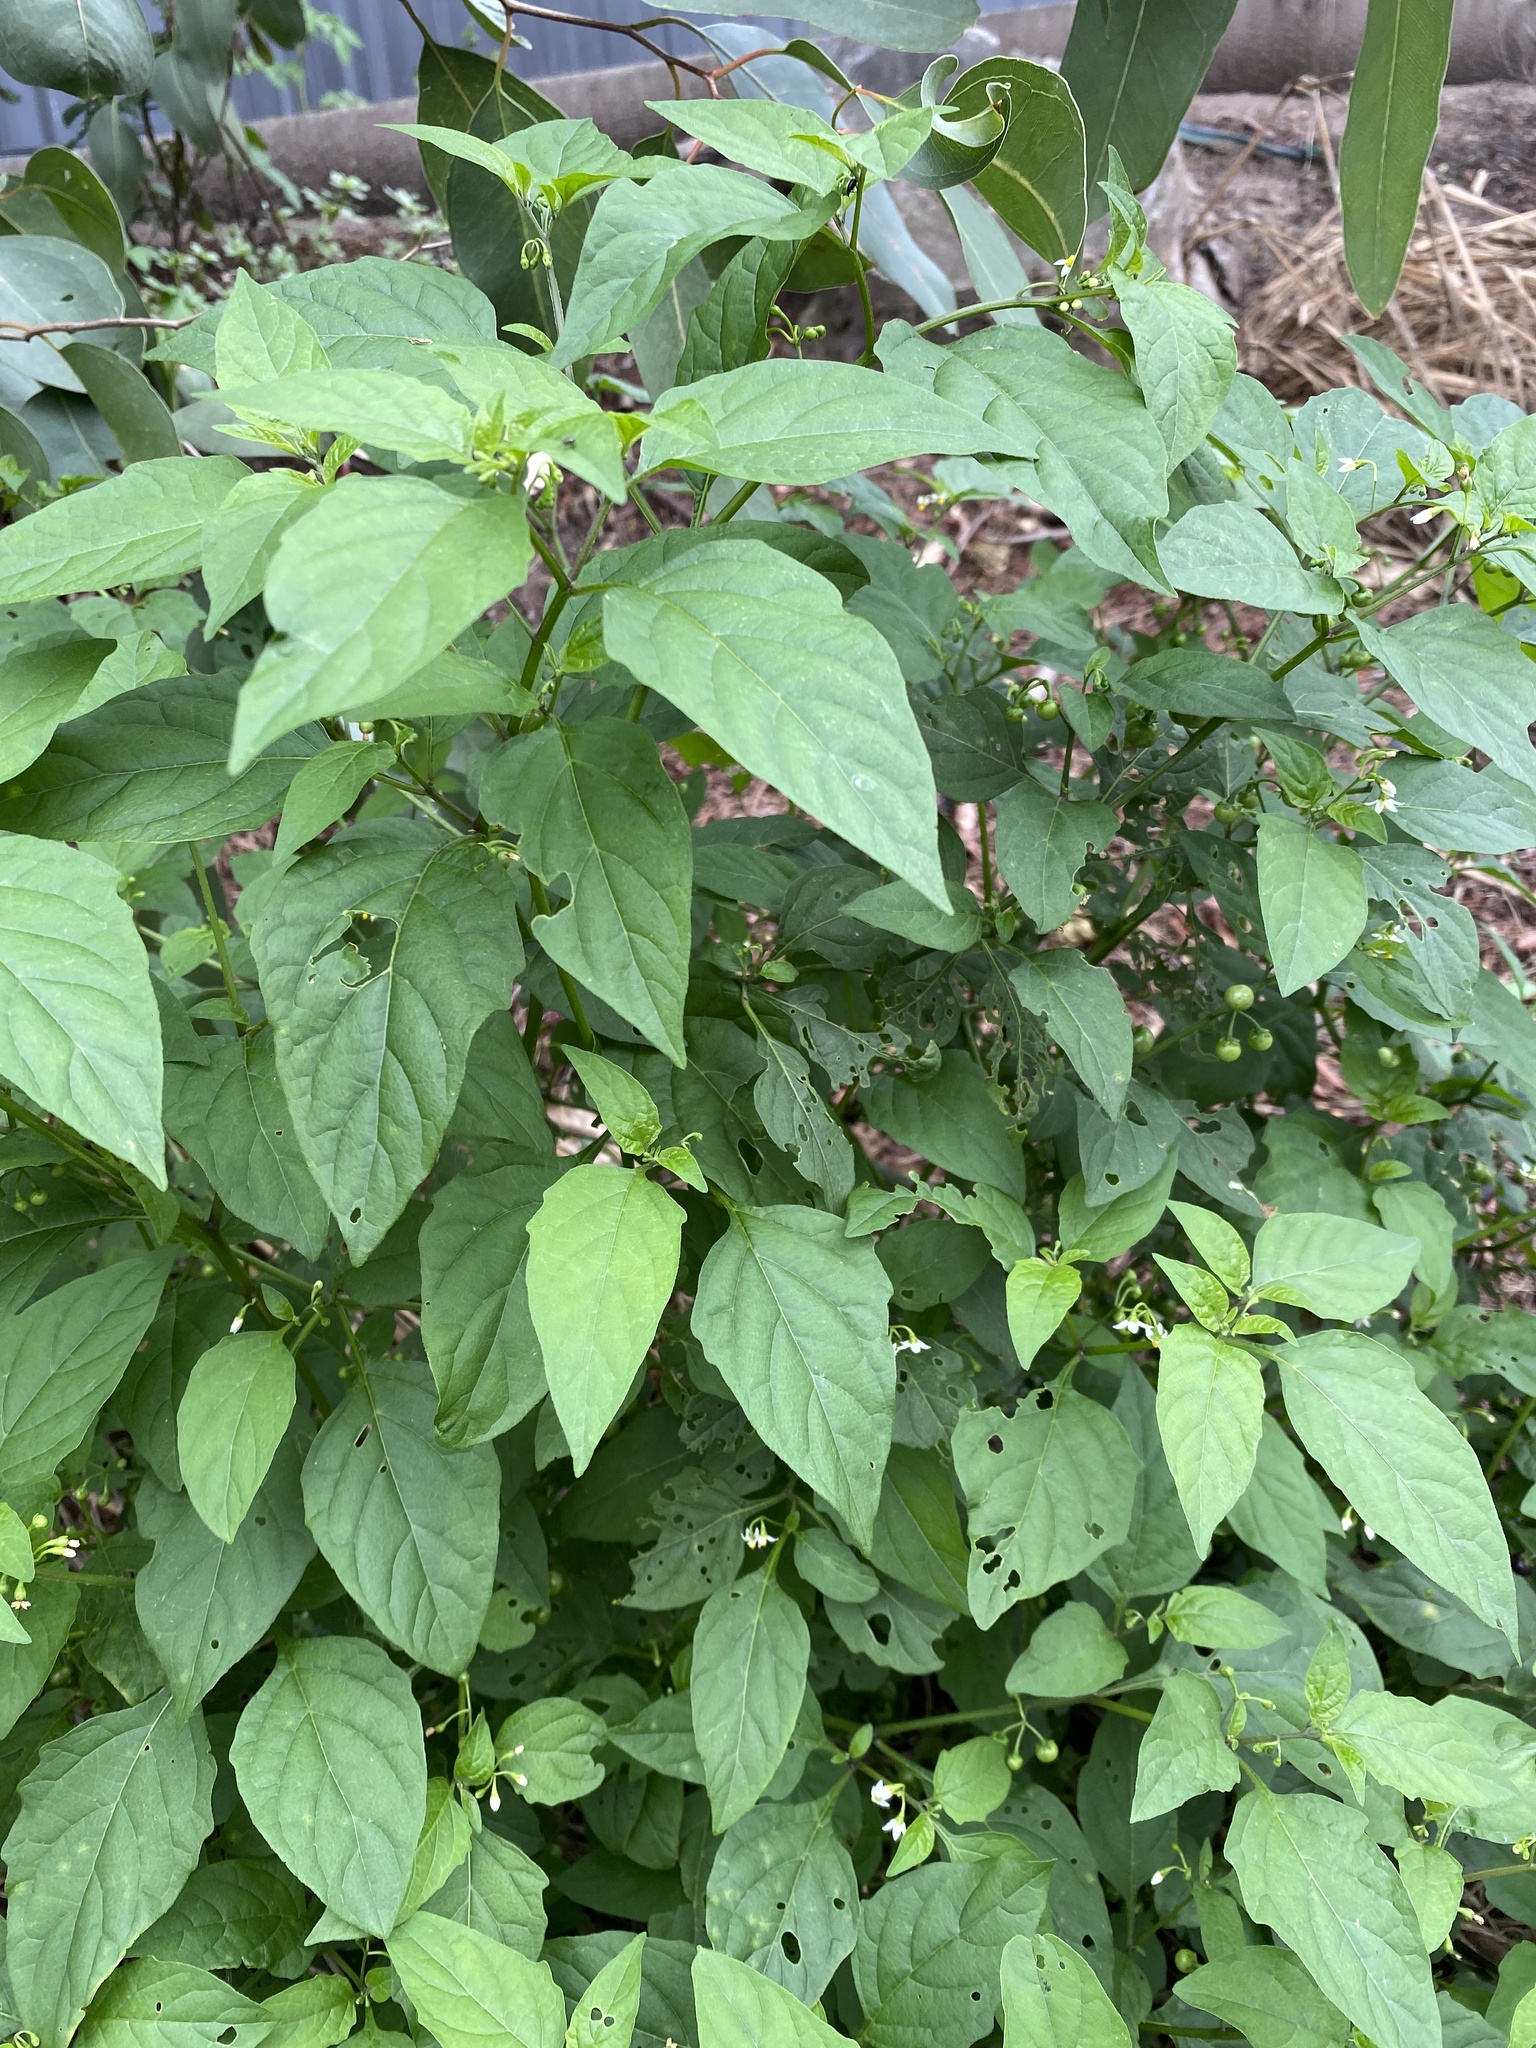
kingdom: Plantae
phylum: Tracheophyta
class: Magnoliopsida
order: Solanales
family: Solanaceae
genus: Solanum
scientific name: Solanum americanum
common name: American black nightshade
